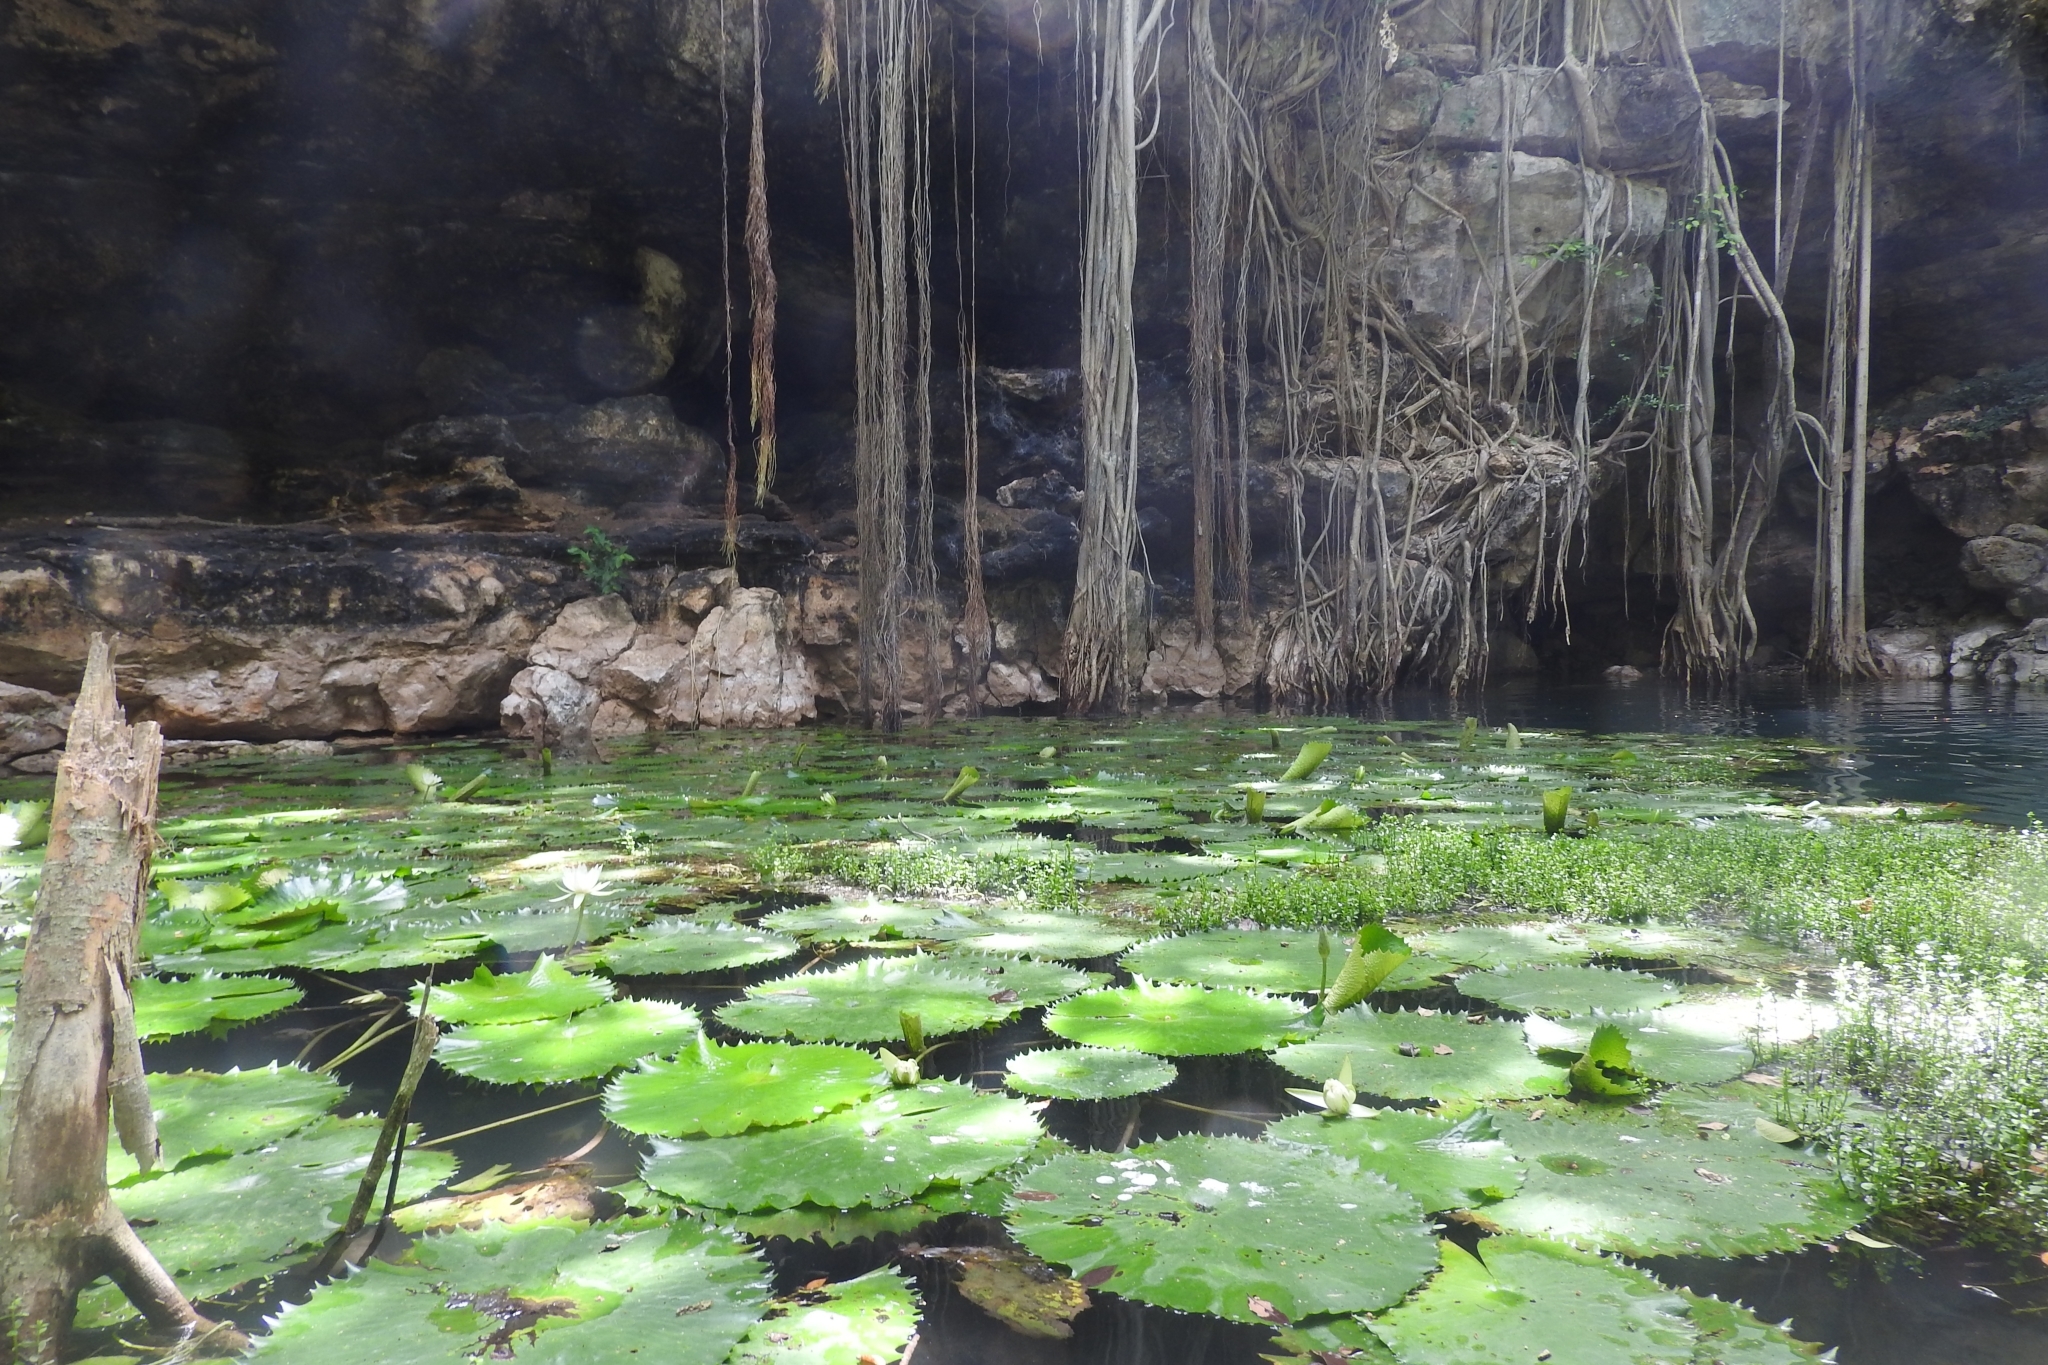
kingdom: Plantae
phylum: Tracheophyta
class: Magnoliopsida
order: Nymphaeales
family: Nymphaeaceae
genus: Nymphaea
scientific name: Nymphaea ampla
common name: Dotleaf waterlily
